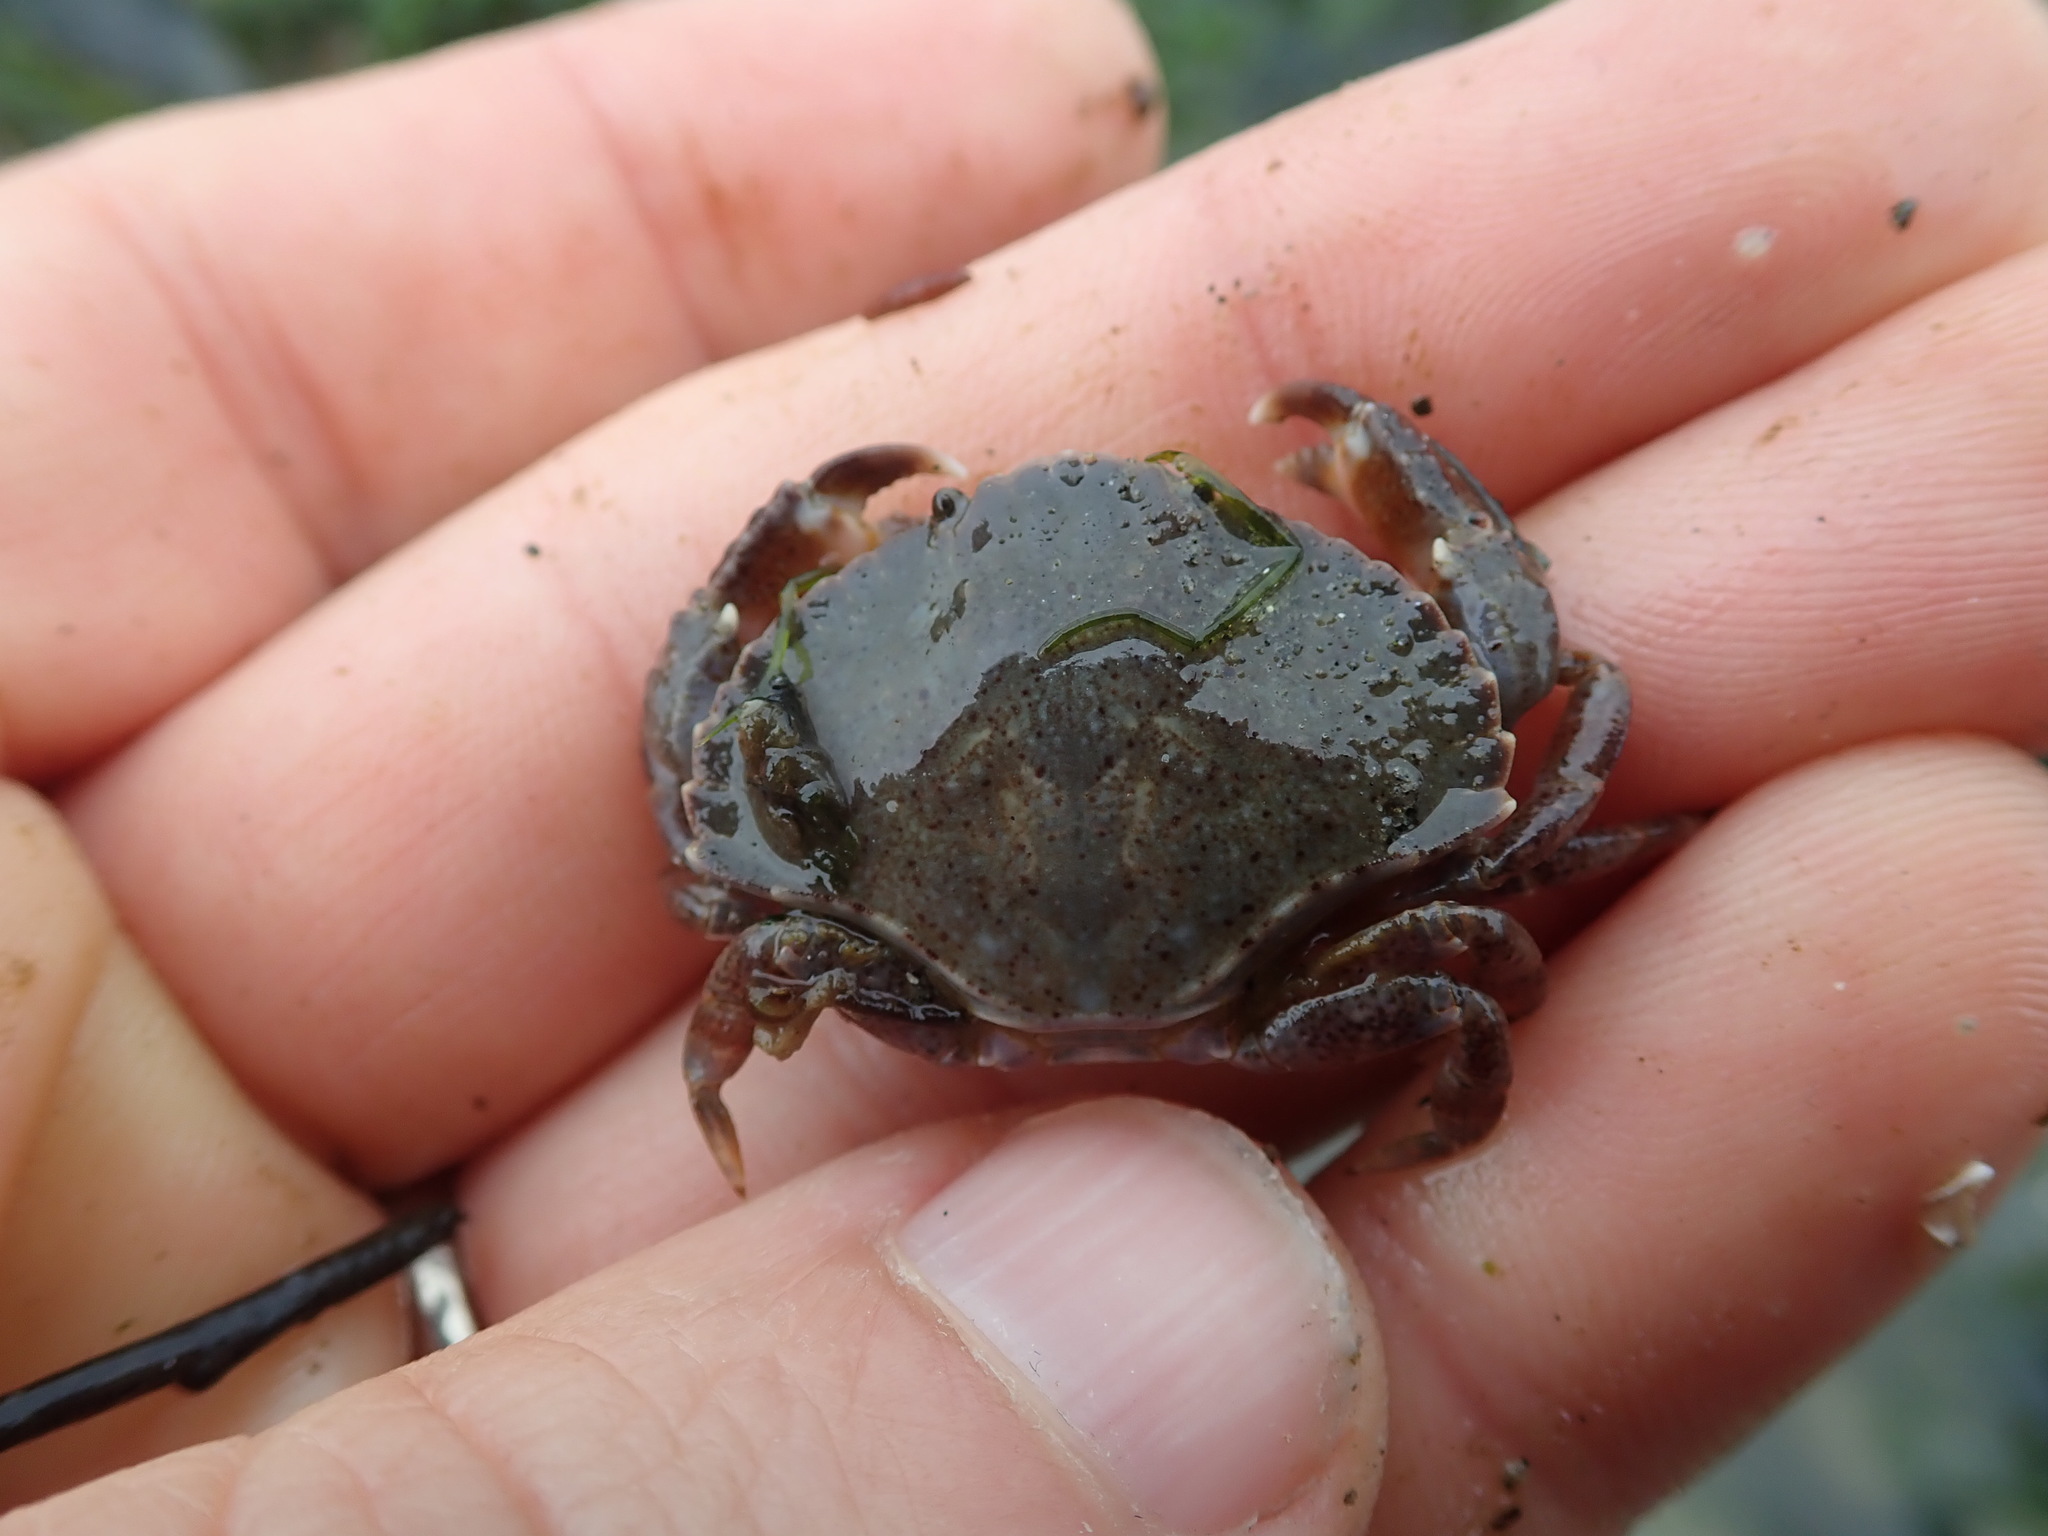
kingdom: Animalia
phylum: Arthropoda
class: Malacostraca
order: Decapoda
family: Cancridae
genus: Cancer
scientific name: Cancer productus
